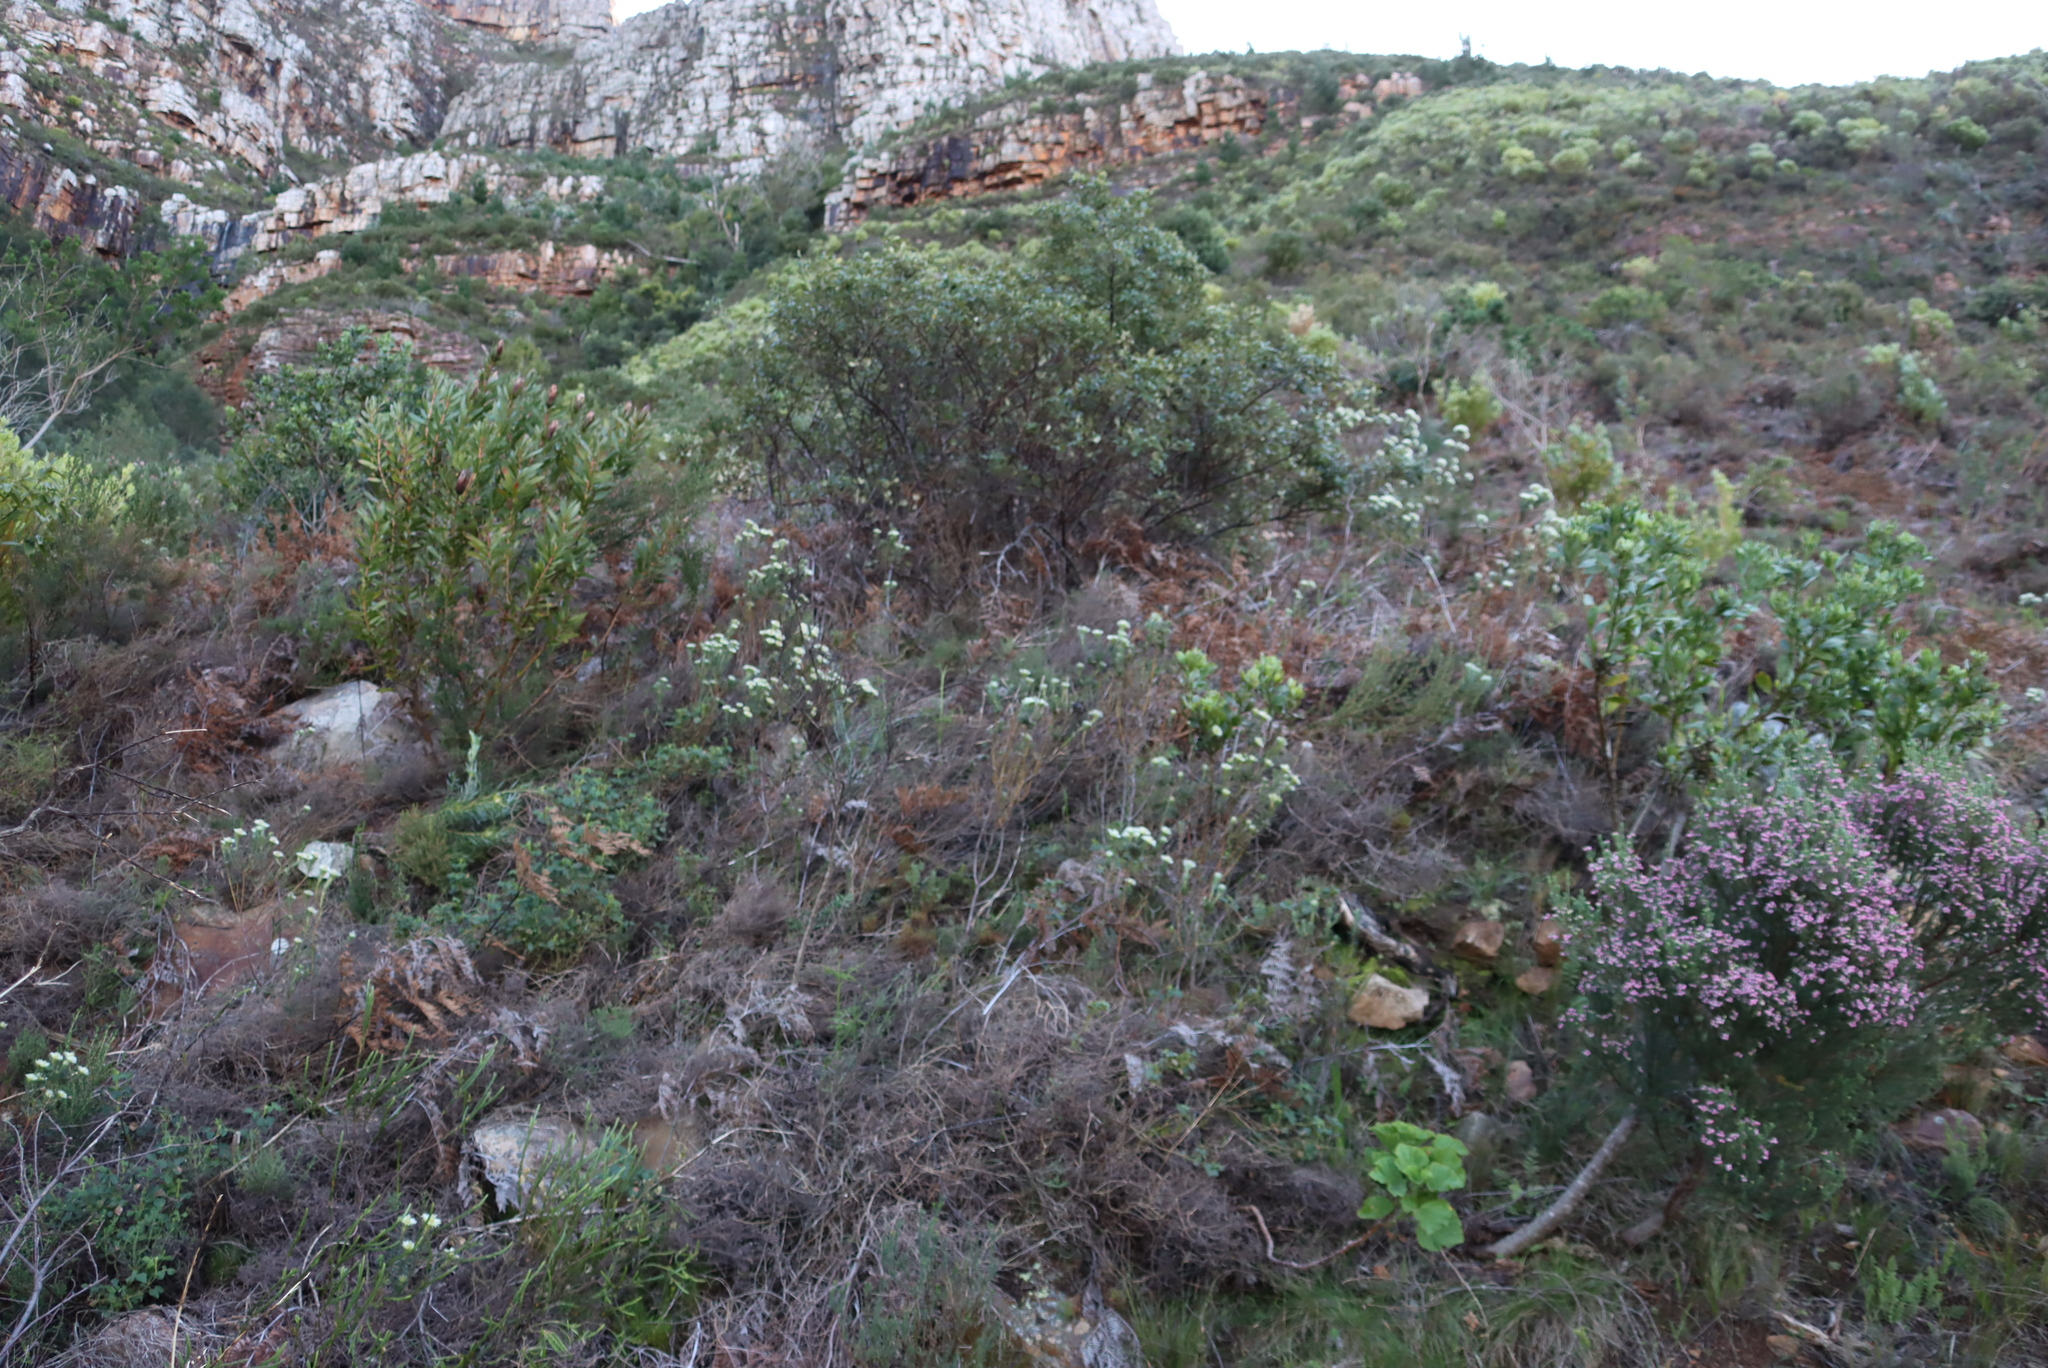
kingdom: Plantae
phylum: Tracheophyta
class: Magnoliopsida
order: Rosales
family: Rhamnaceae
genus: Phylica
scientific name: Phylica pubescens
